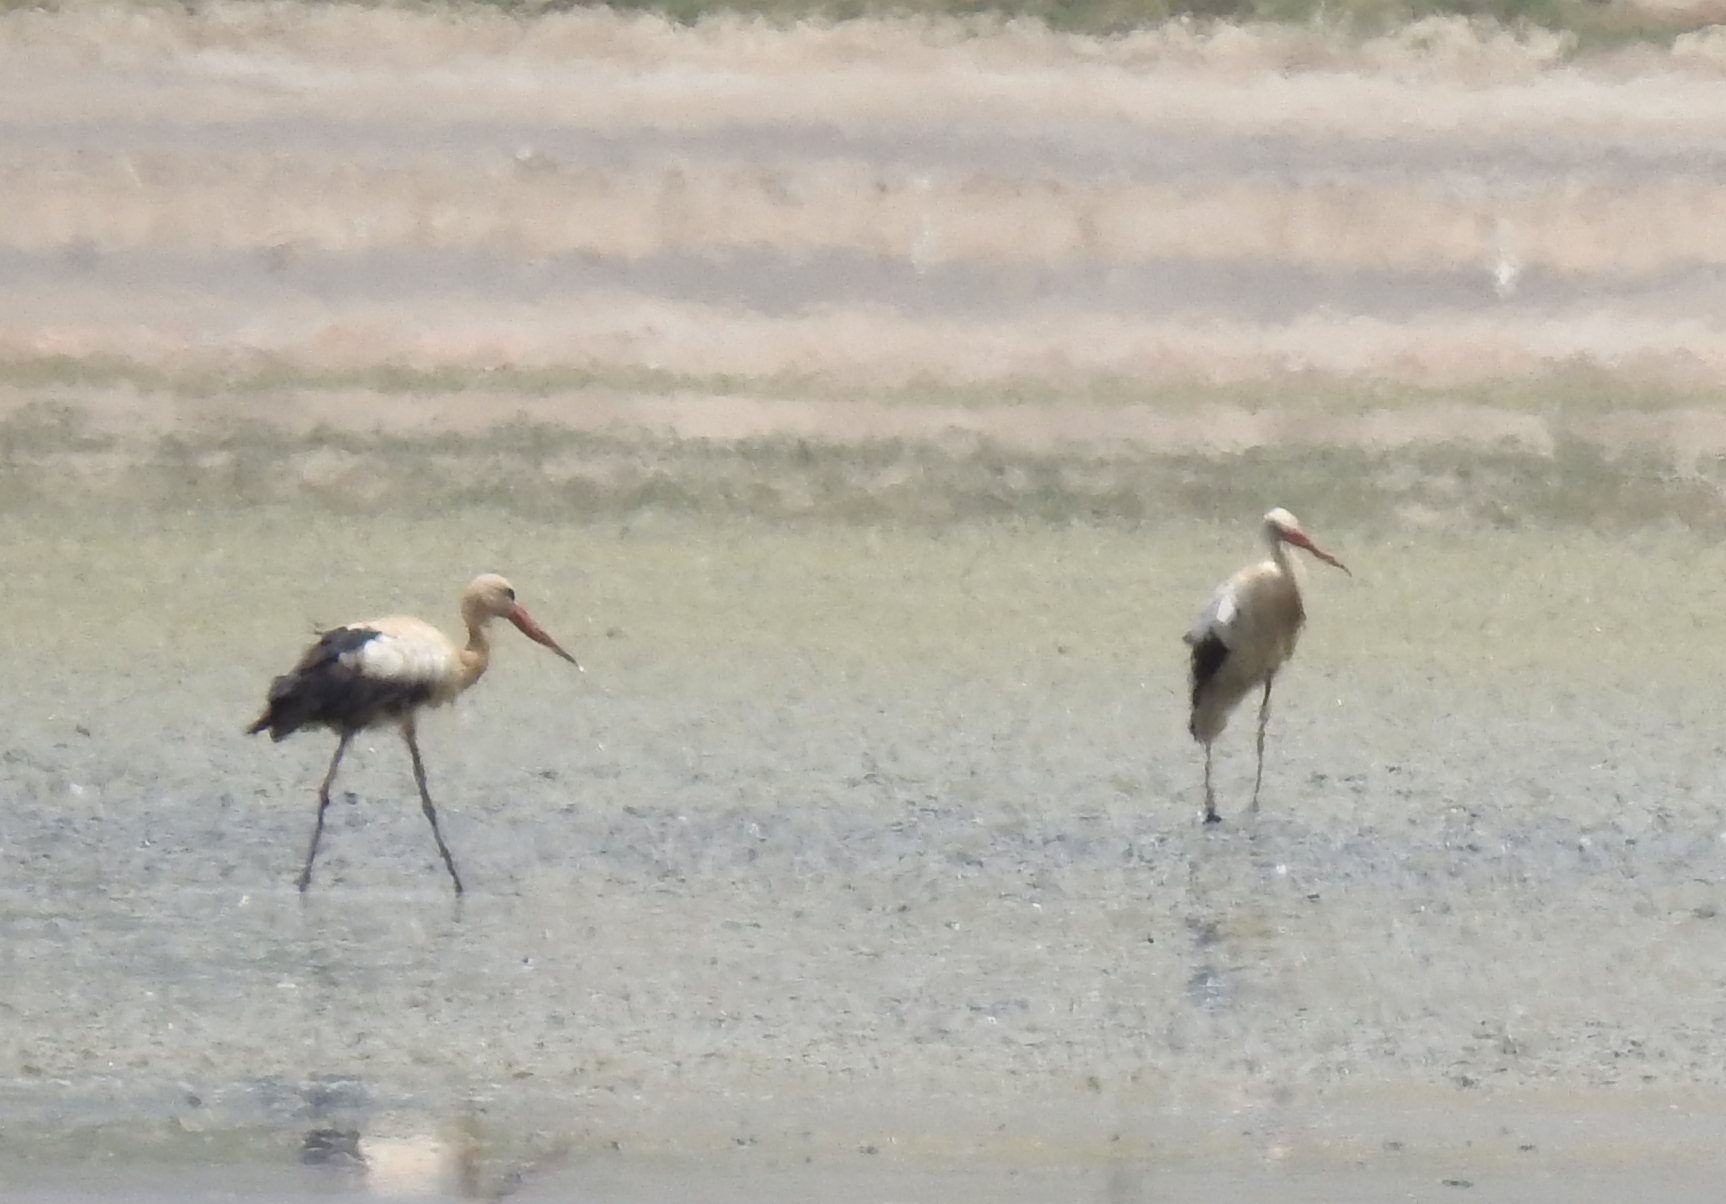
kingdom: Animalia
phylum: Chordata
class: Aves
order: Ciconiiformes
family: Ciconiidae
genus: Ciconia
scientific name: Ciconia ciconia
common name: White stork
